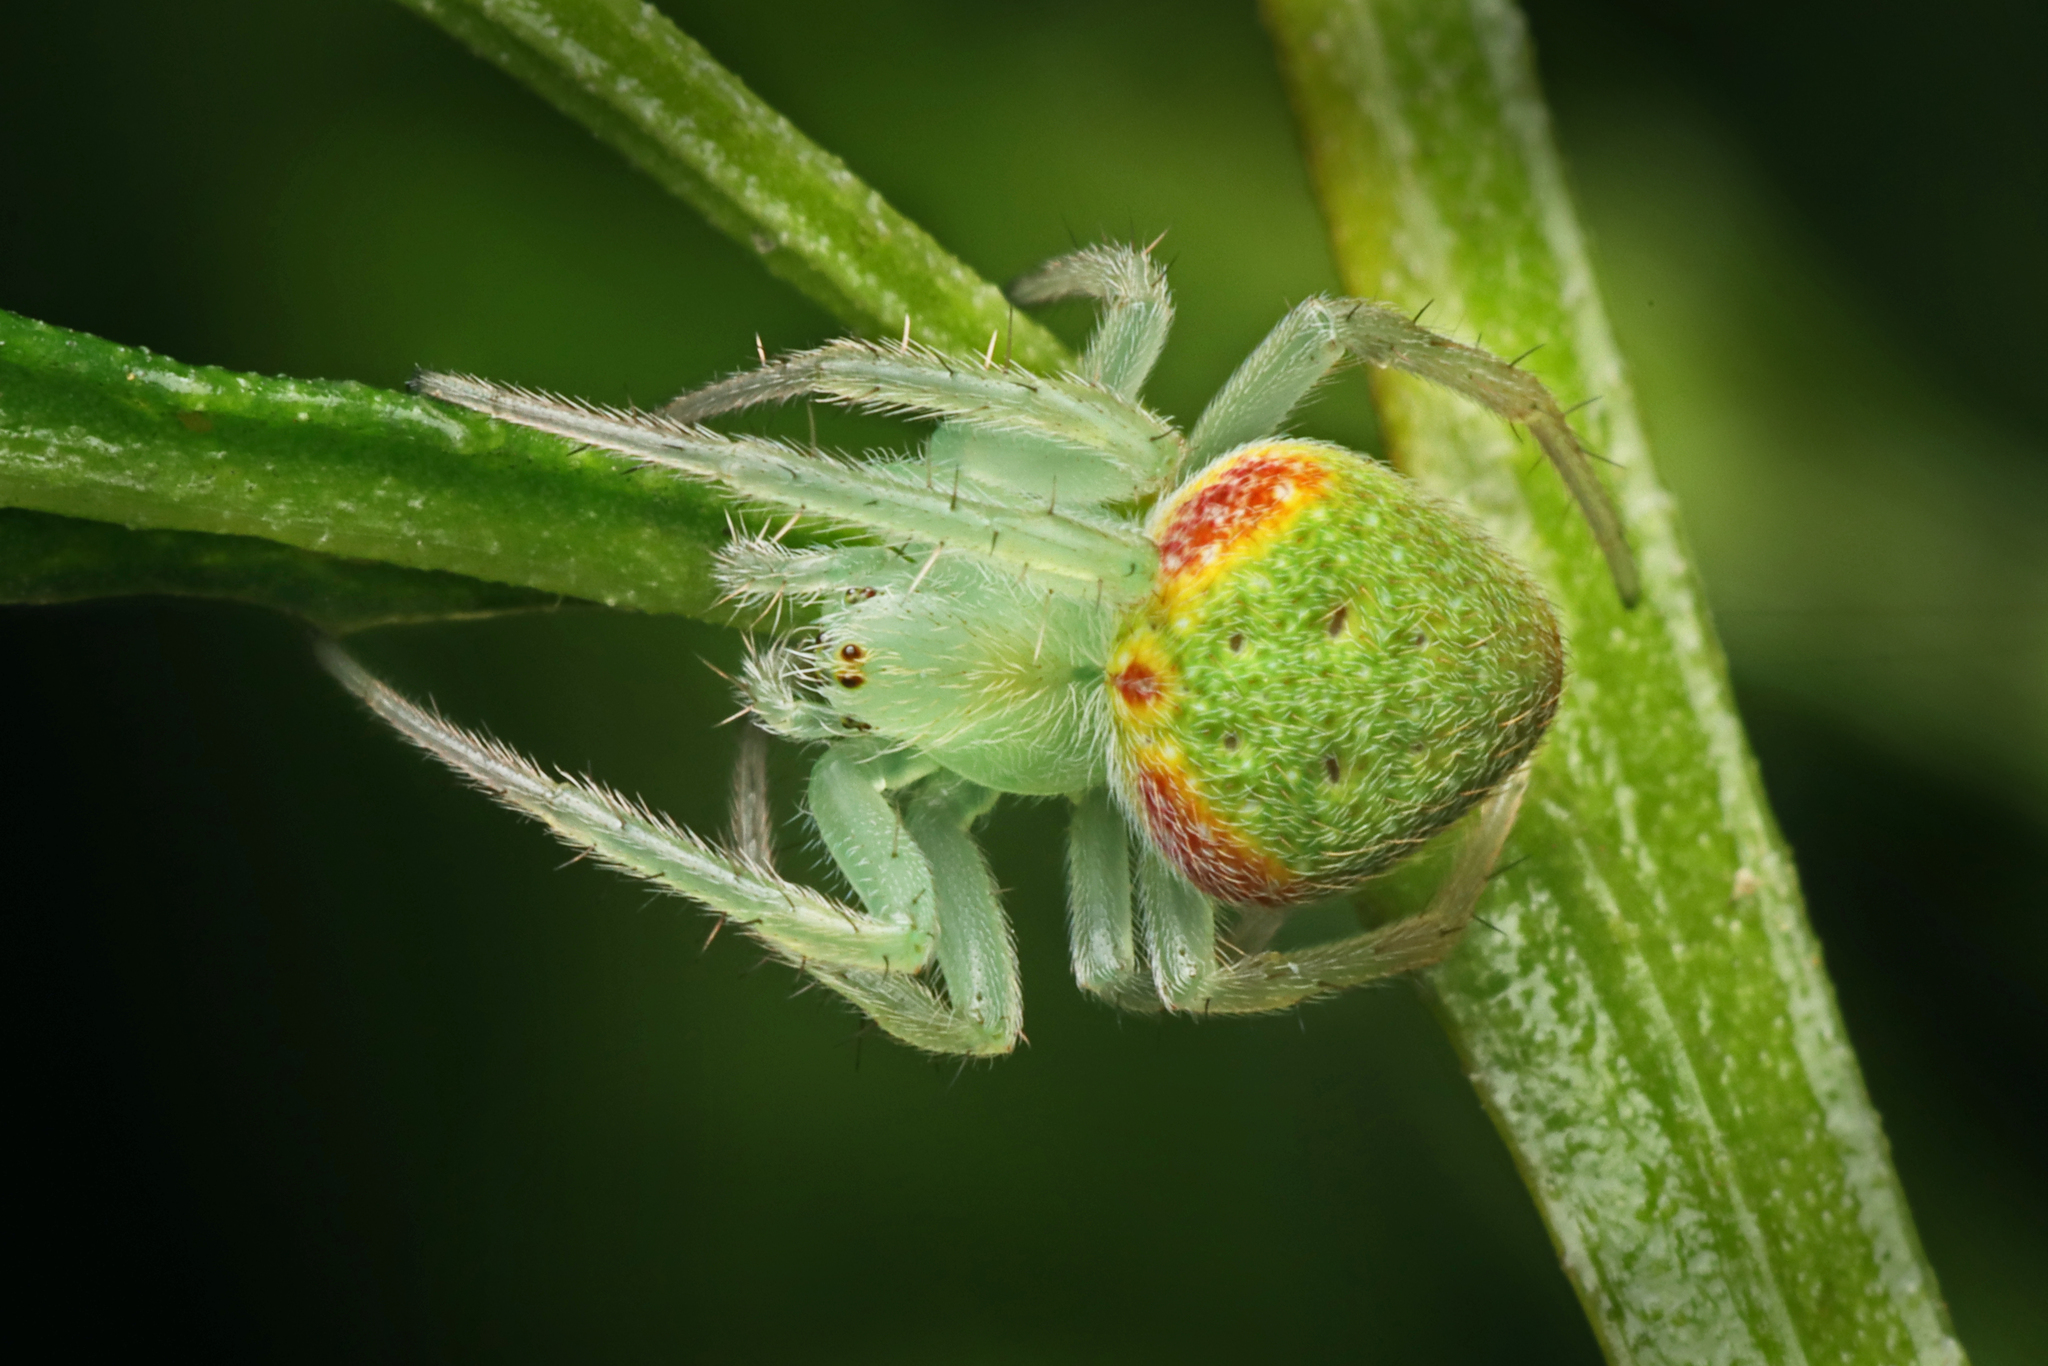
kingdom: Animalia
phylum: Arthropoda
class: Arachnida
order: Araneae
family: Araneidae
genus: Araneus
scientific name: Araneus circulissparsus
